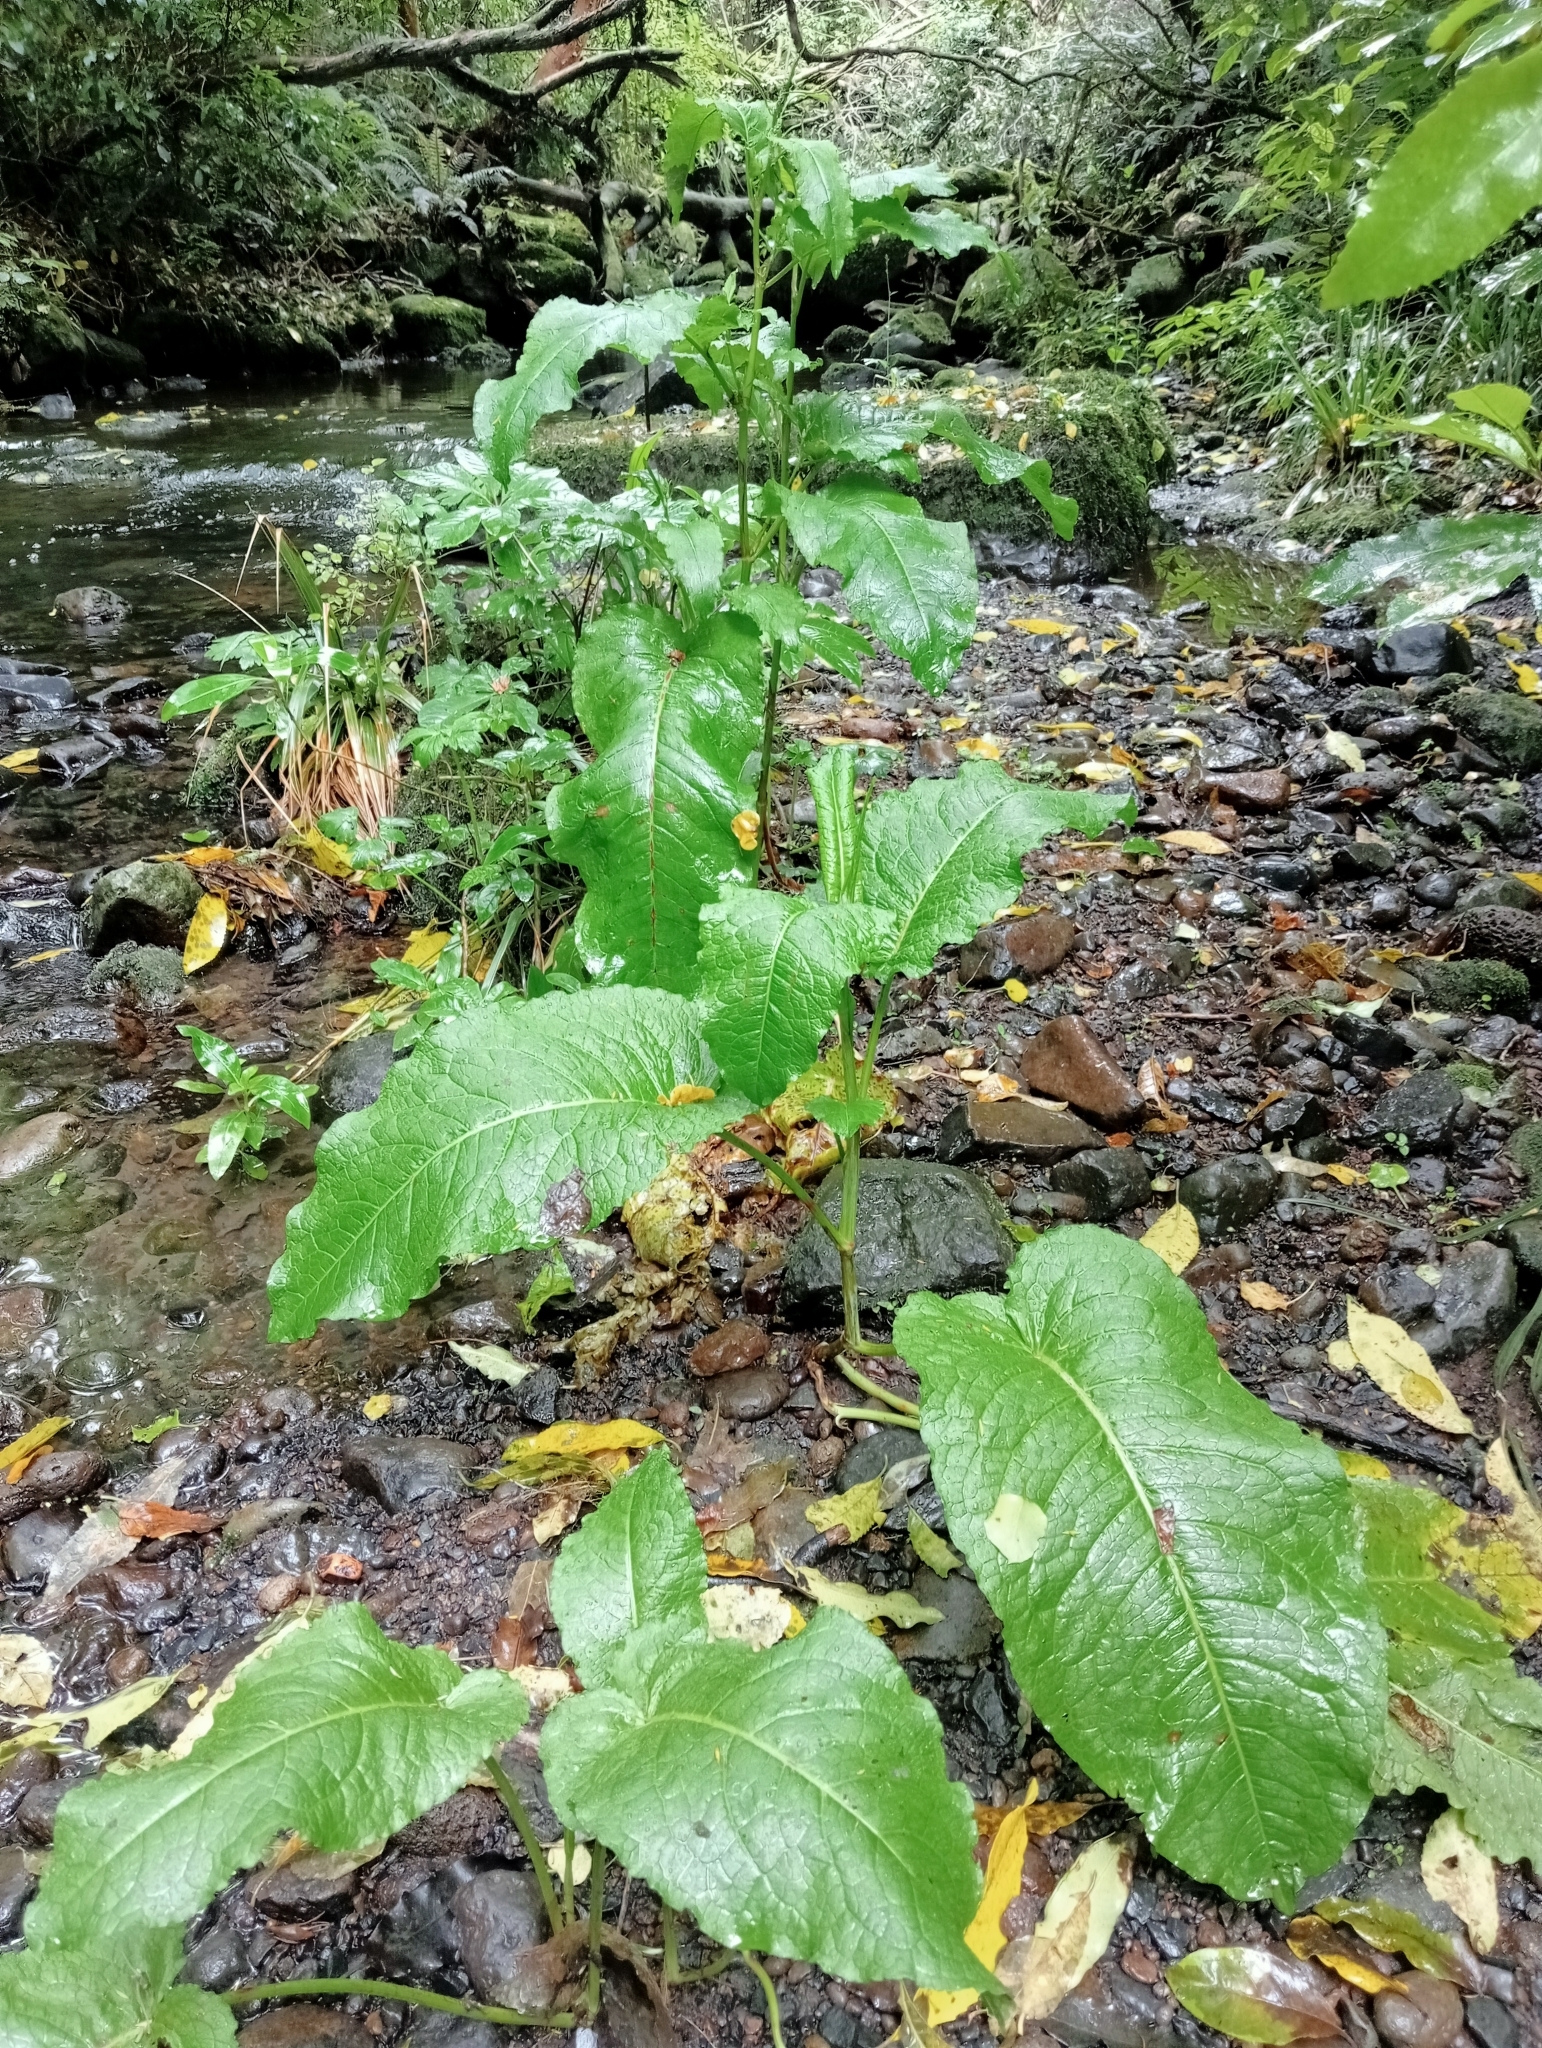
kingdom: Plantae
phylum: Tracheophyta
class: Magnoliopsida
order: Caryophyllales
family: Polygonaceae
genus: Rumex
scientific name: Rumex obtusifolius
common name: Bitter dock
